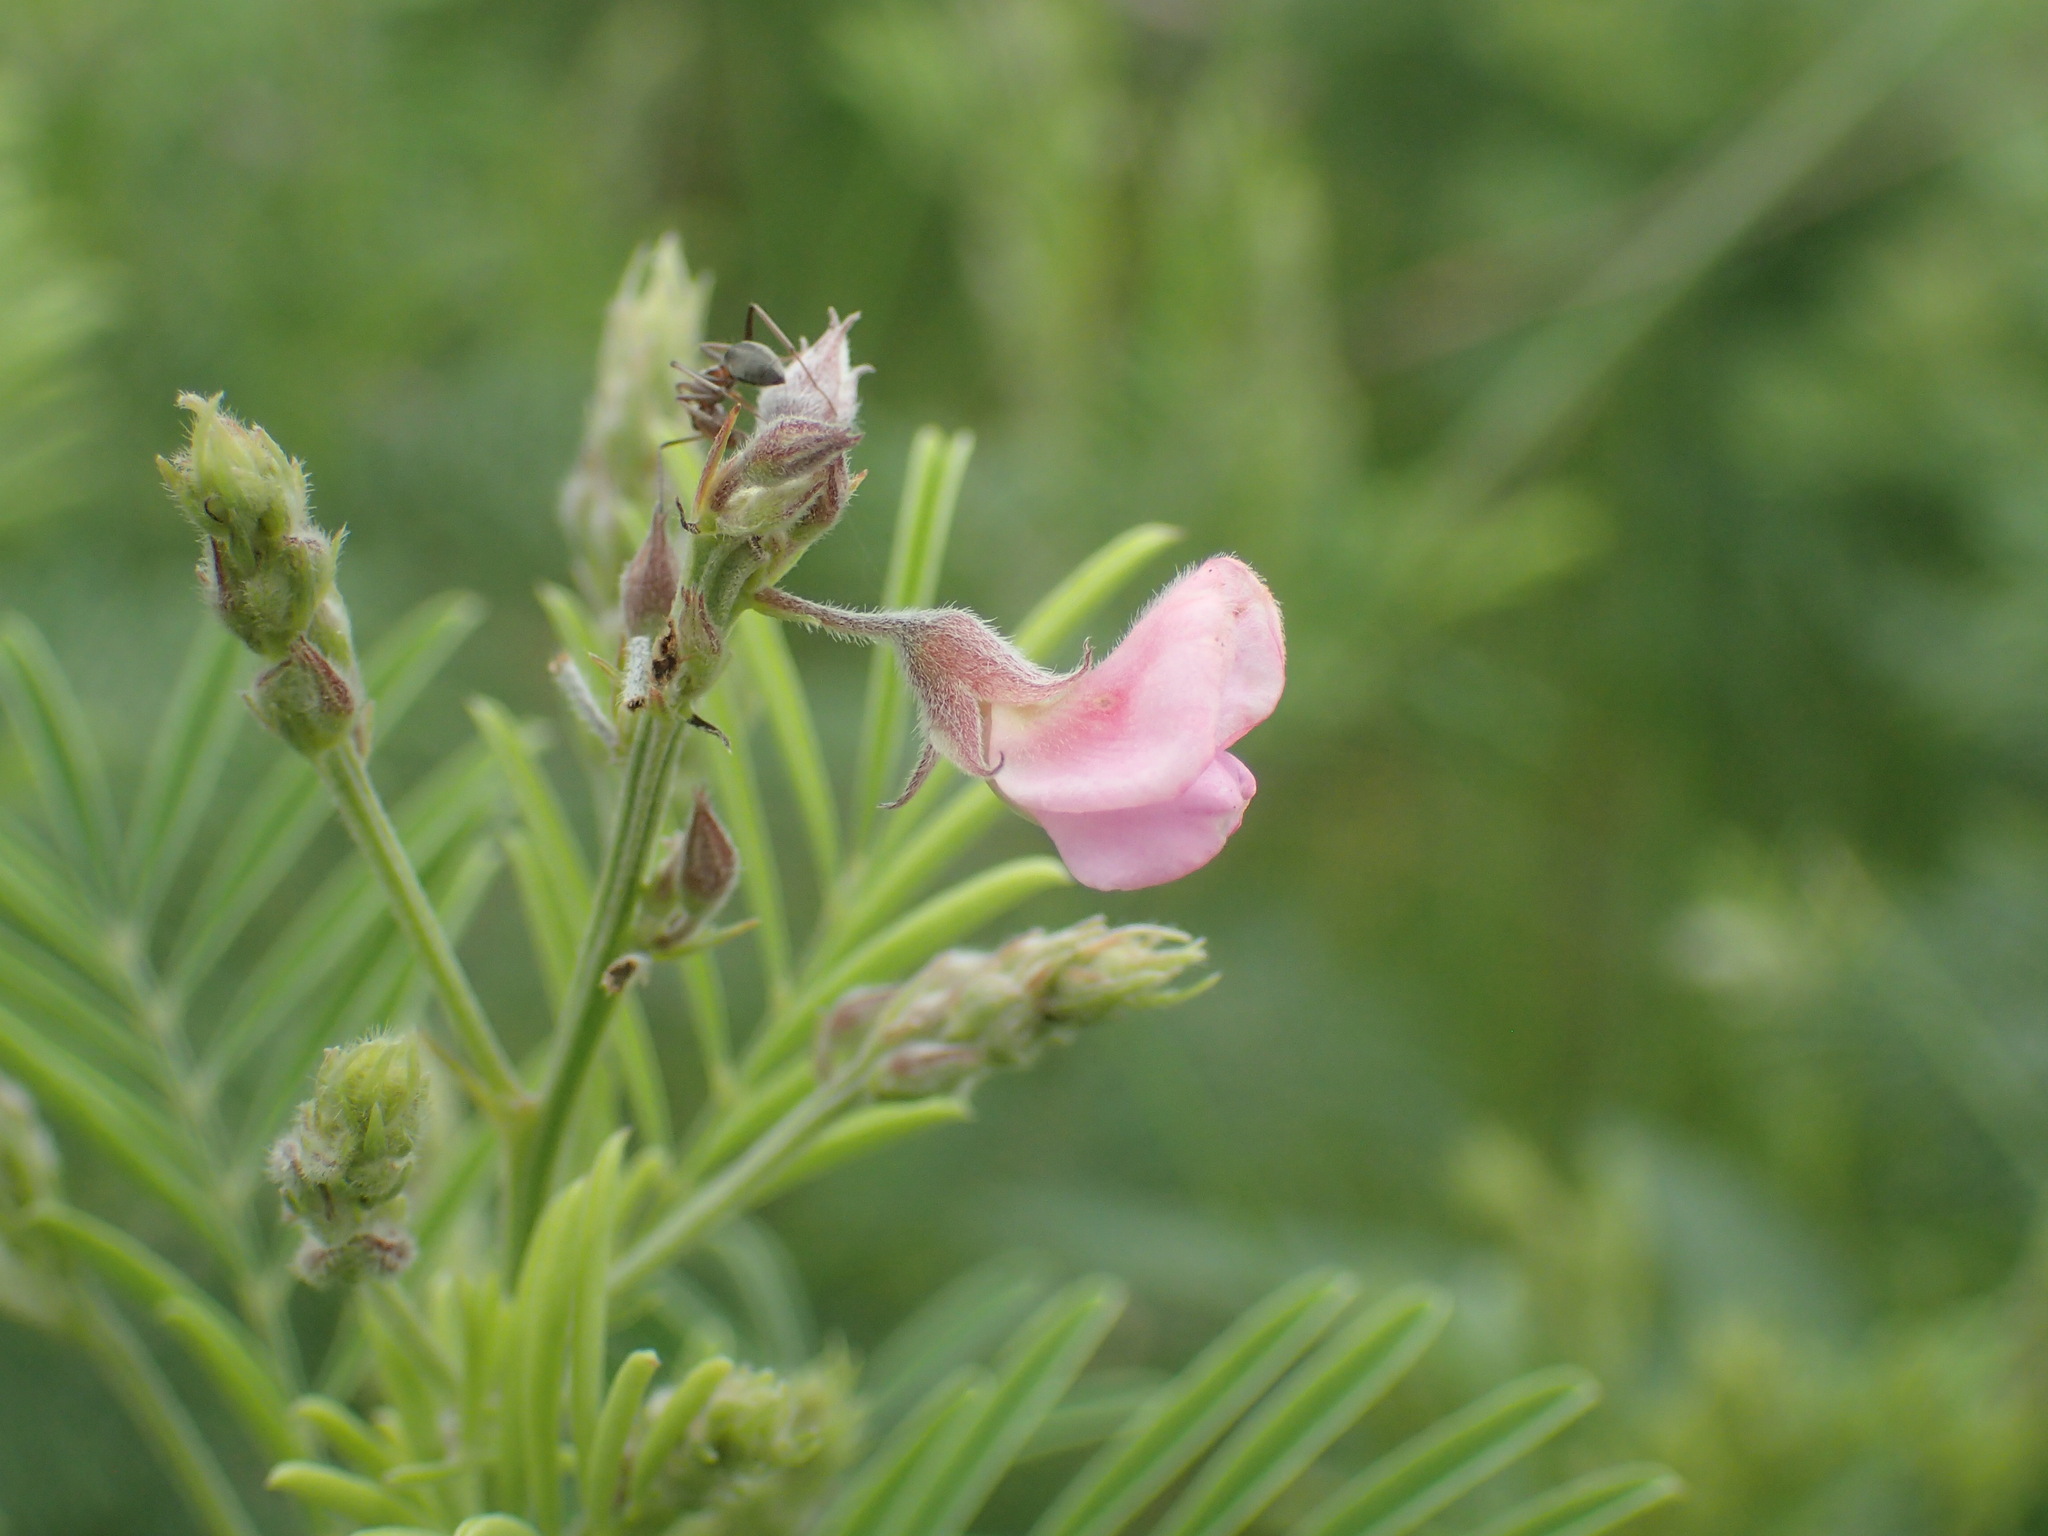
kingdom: Plantae
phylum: Tracheophyta
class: Magnoliopsida
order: Fabales
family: Fabaceae
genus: Tephrosia
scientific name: Tephrosia polystachya
